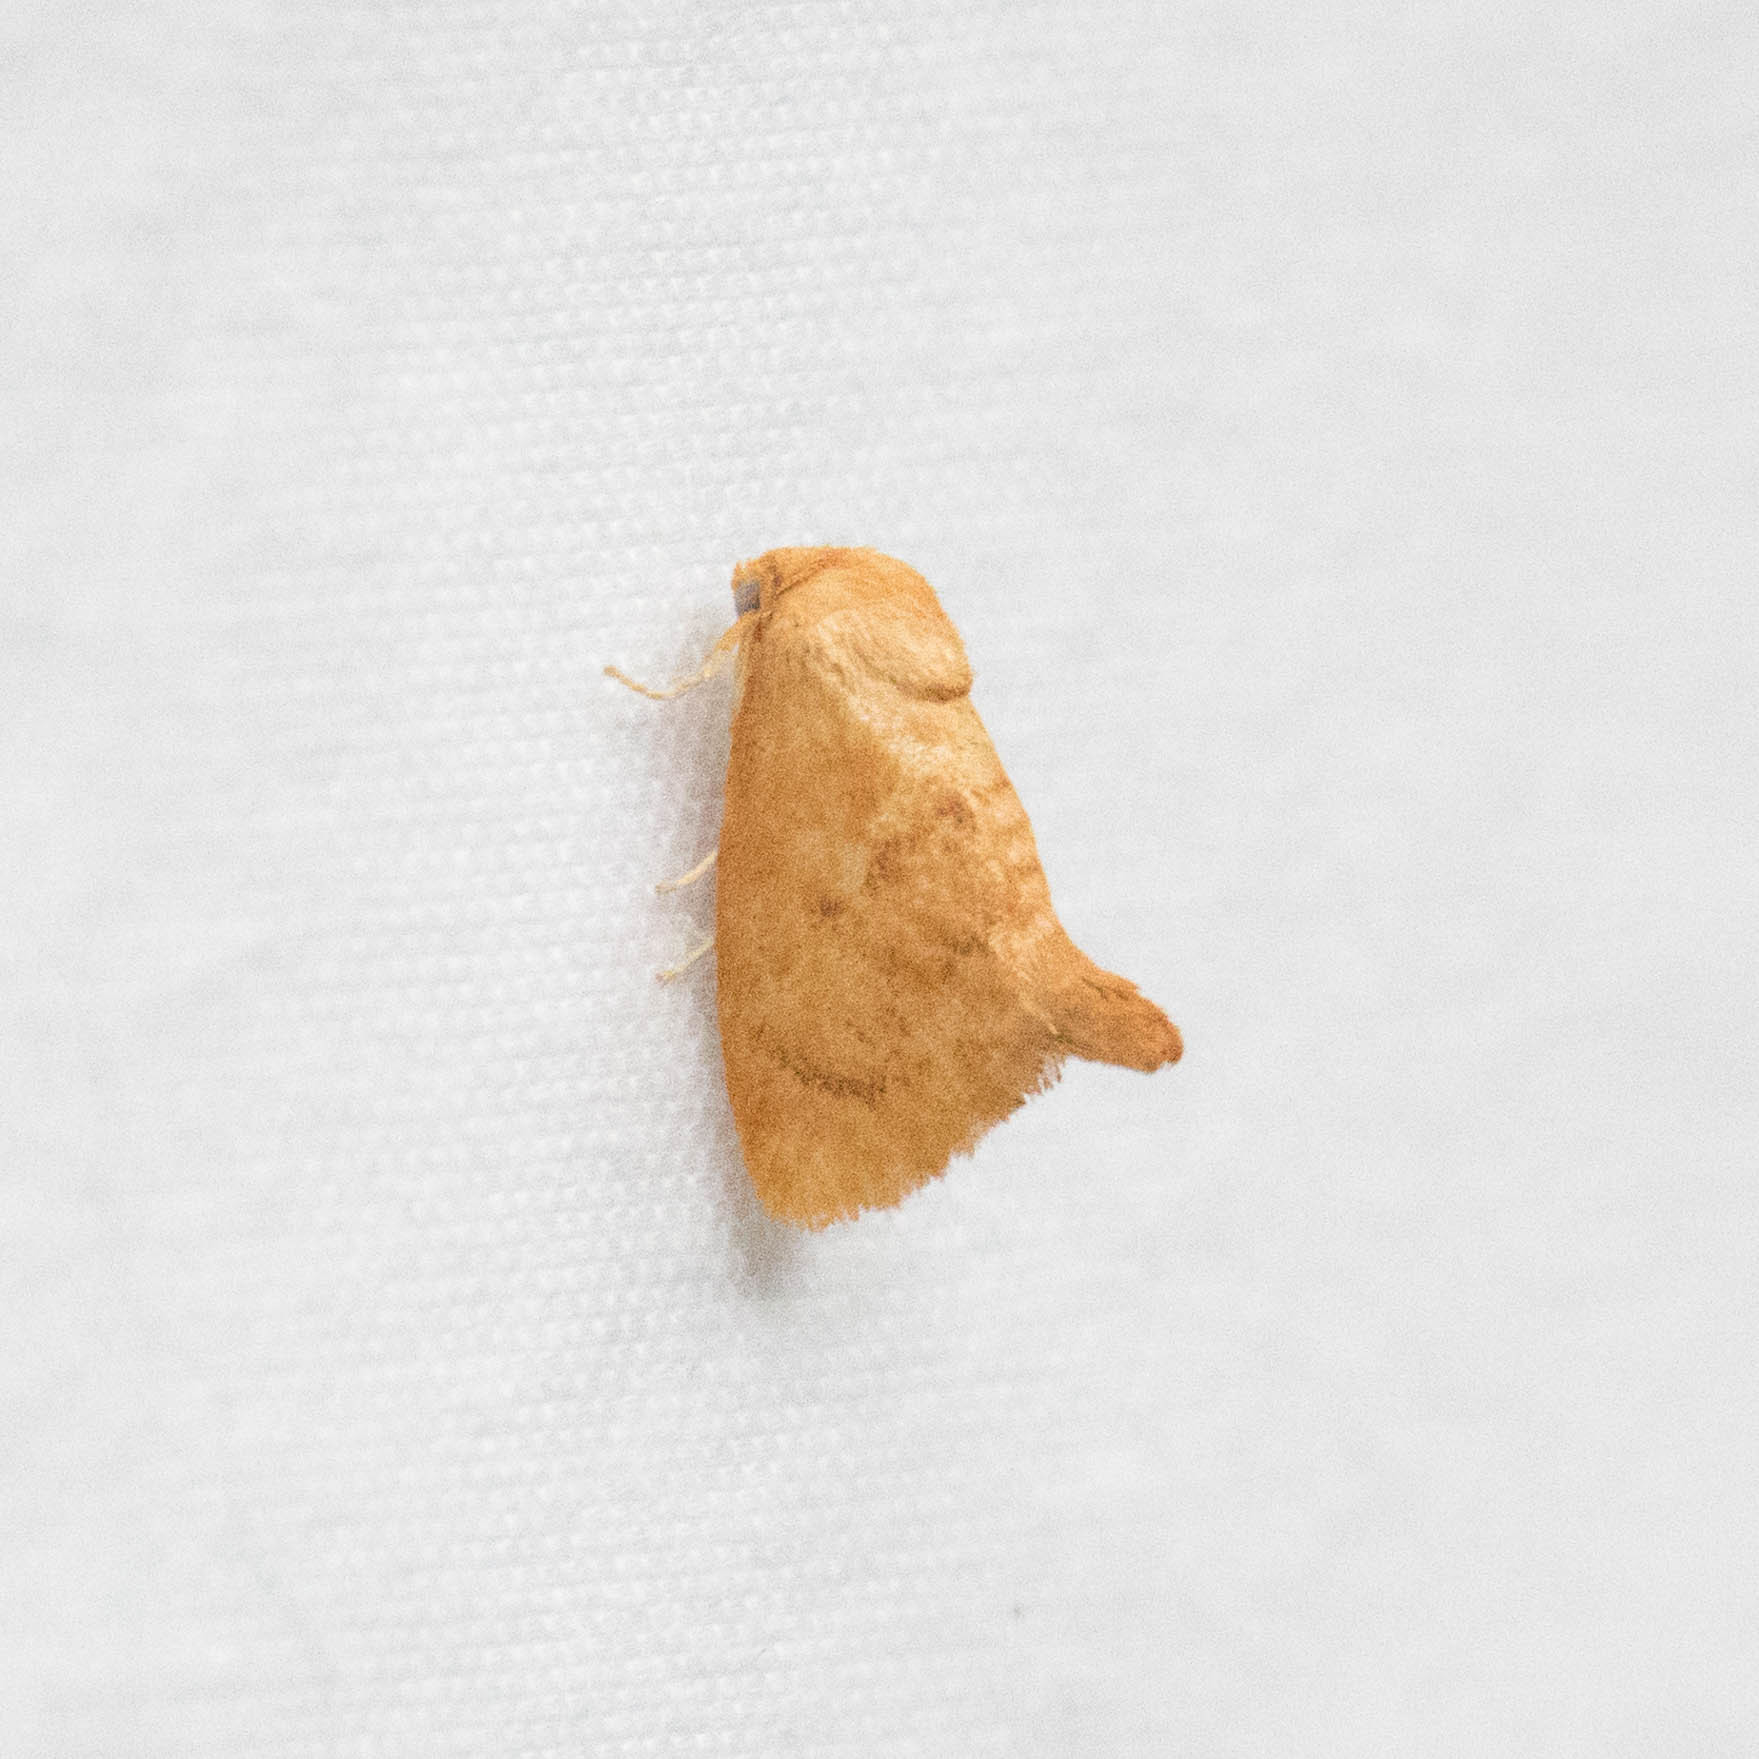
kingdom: Animalia
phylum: Arthropoda
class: Insecta
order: Lepidoptera
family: Limacodidae
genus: Tortricidia
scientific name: Tortricidia flexuosa
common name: Abbreviated button slug moth
